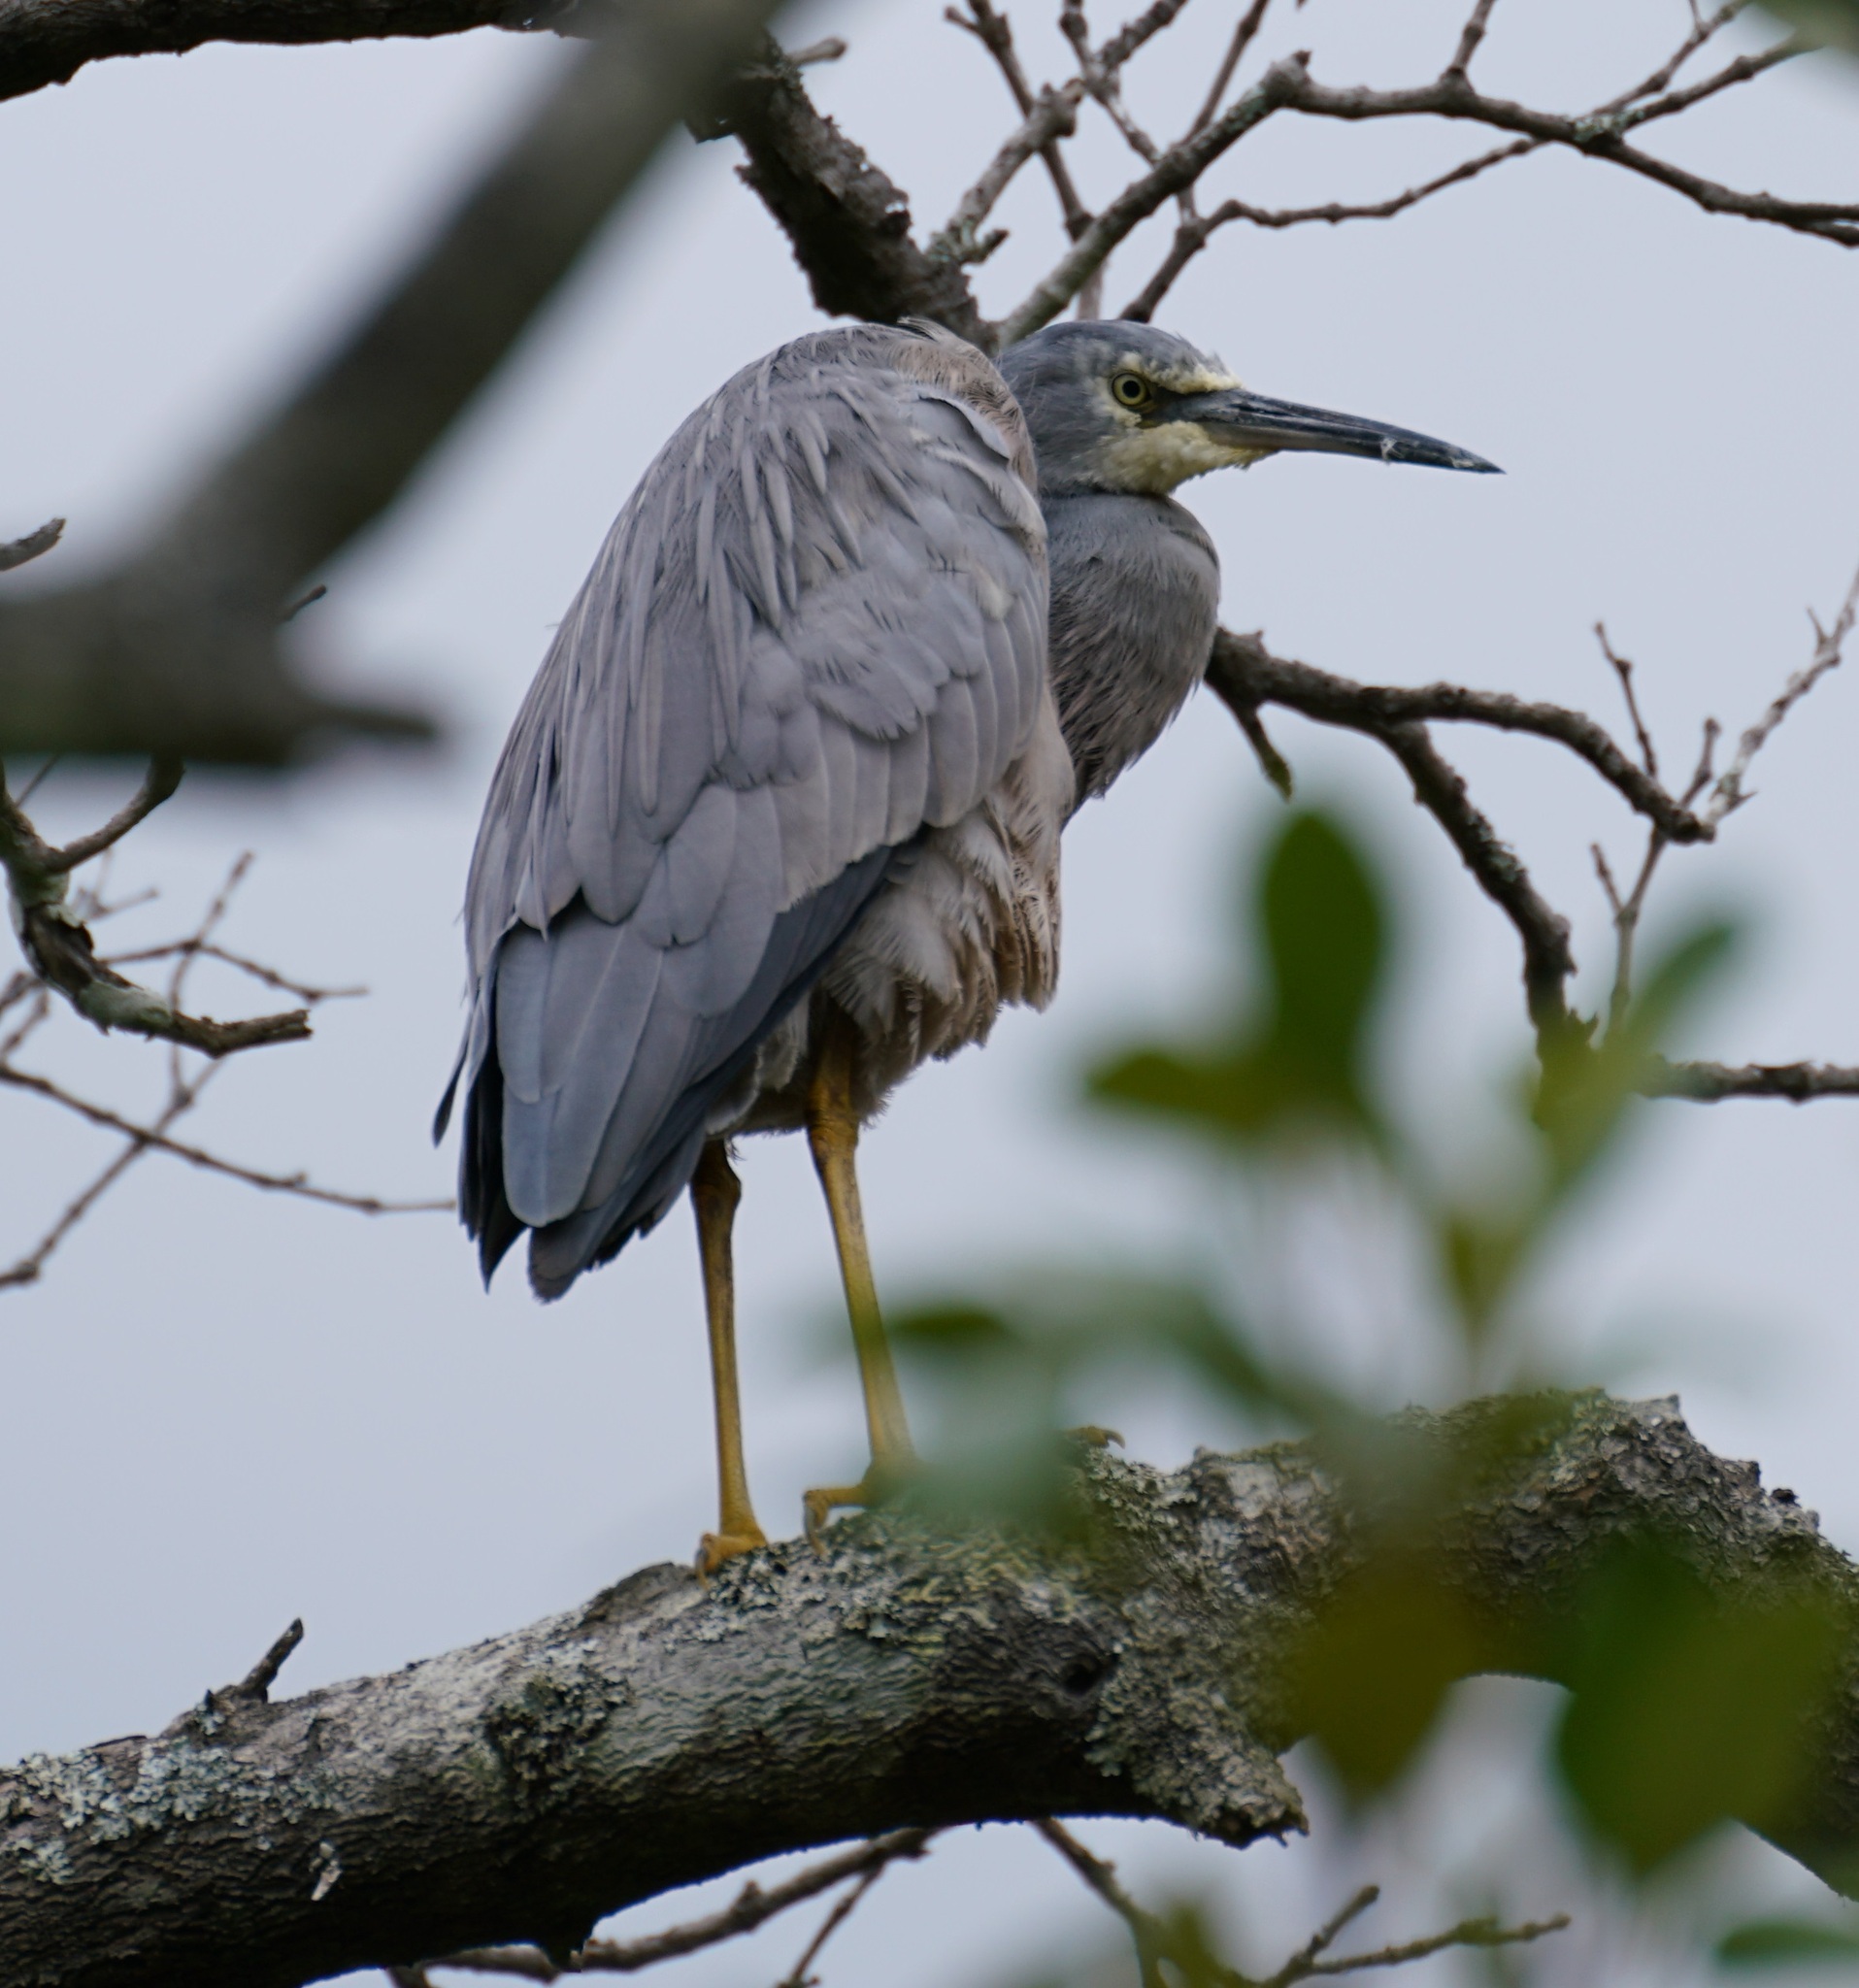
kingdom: Animalia
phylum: Chordata
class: Aves
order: Pelecaniformes
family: Ardeidae
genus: Egretta
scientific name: Egretta novaehollandiae
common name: White-faced heron
